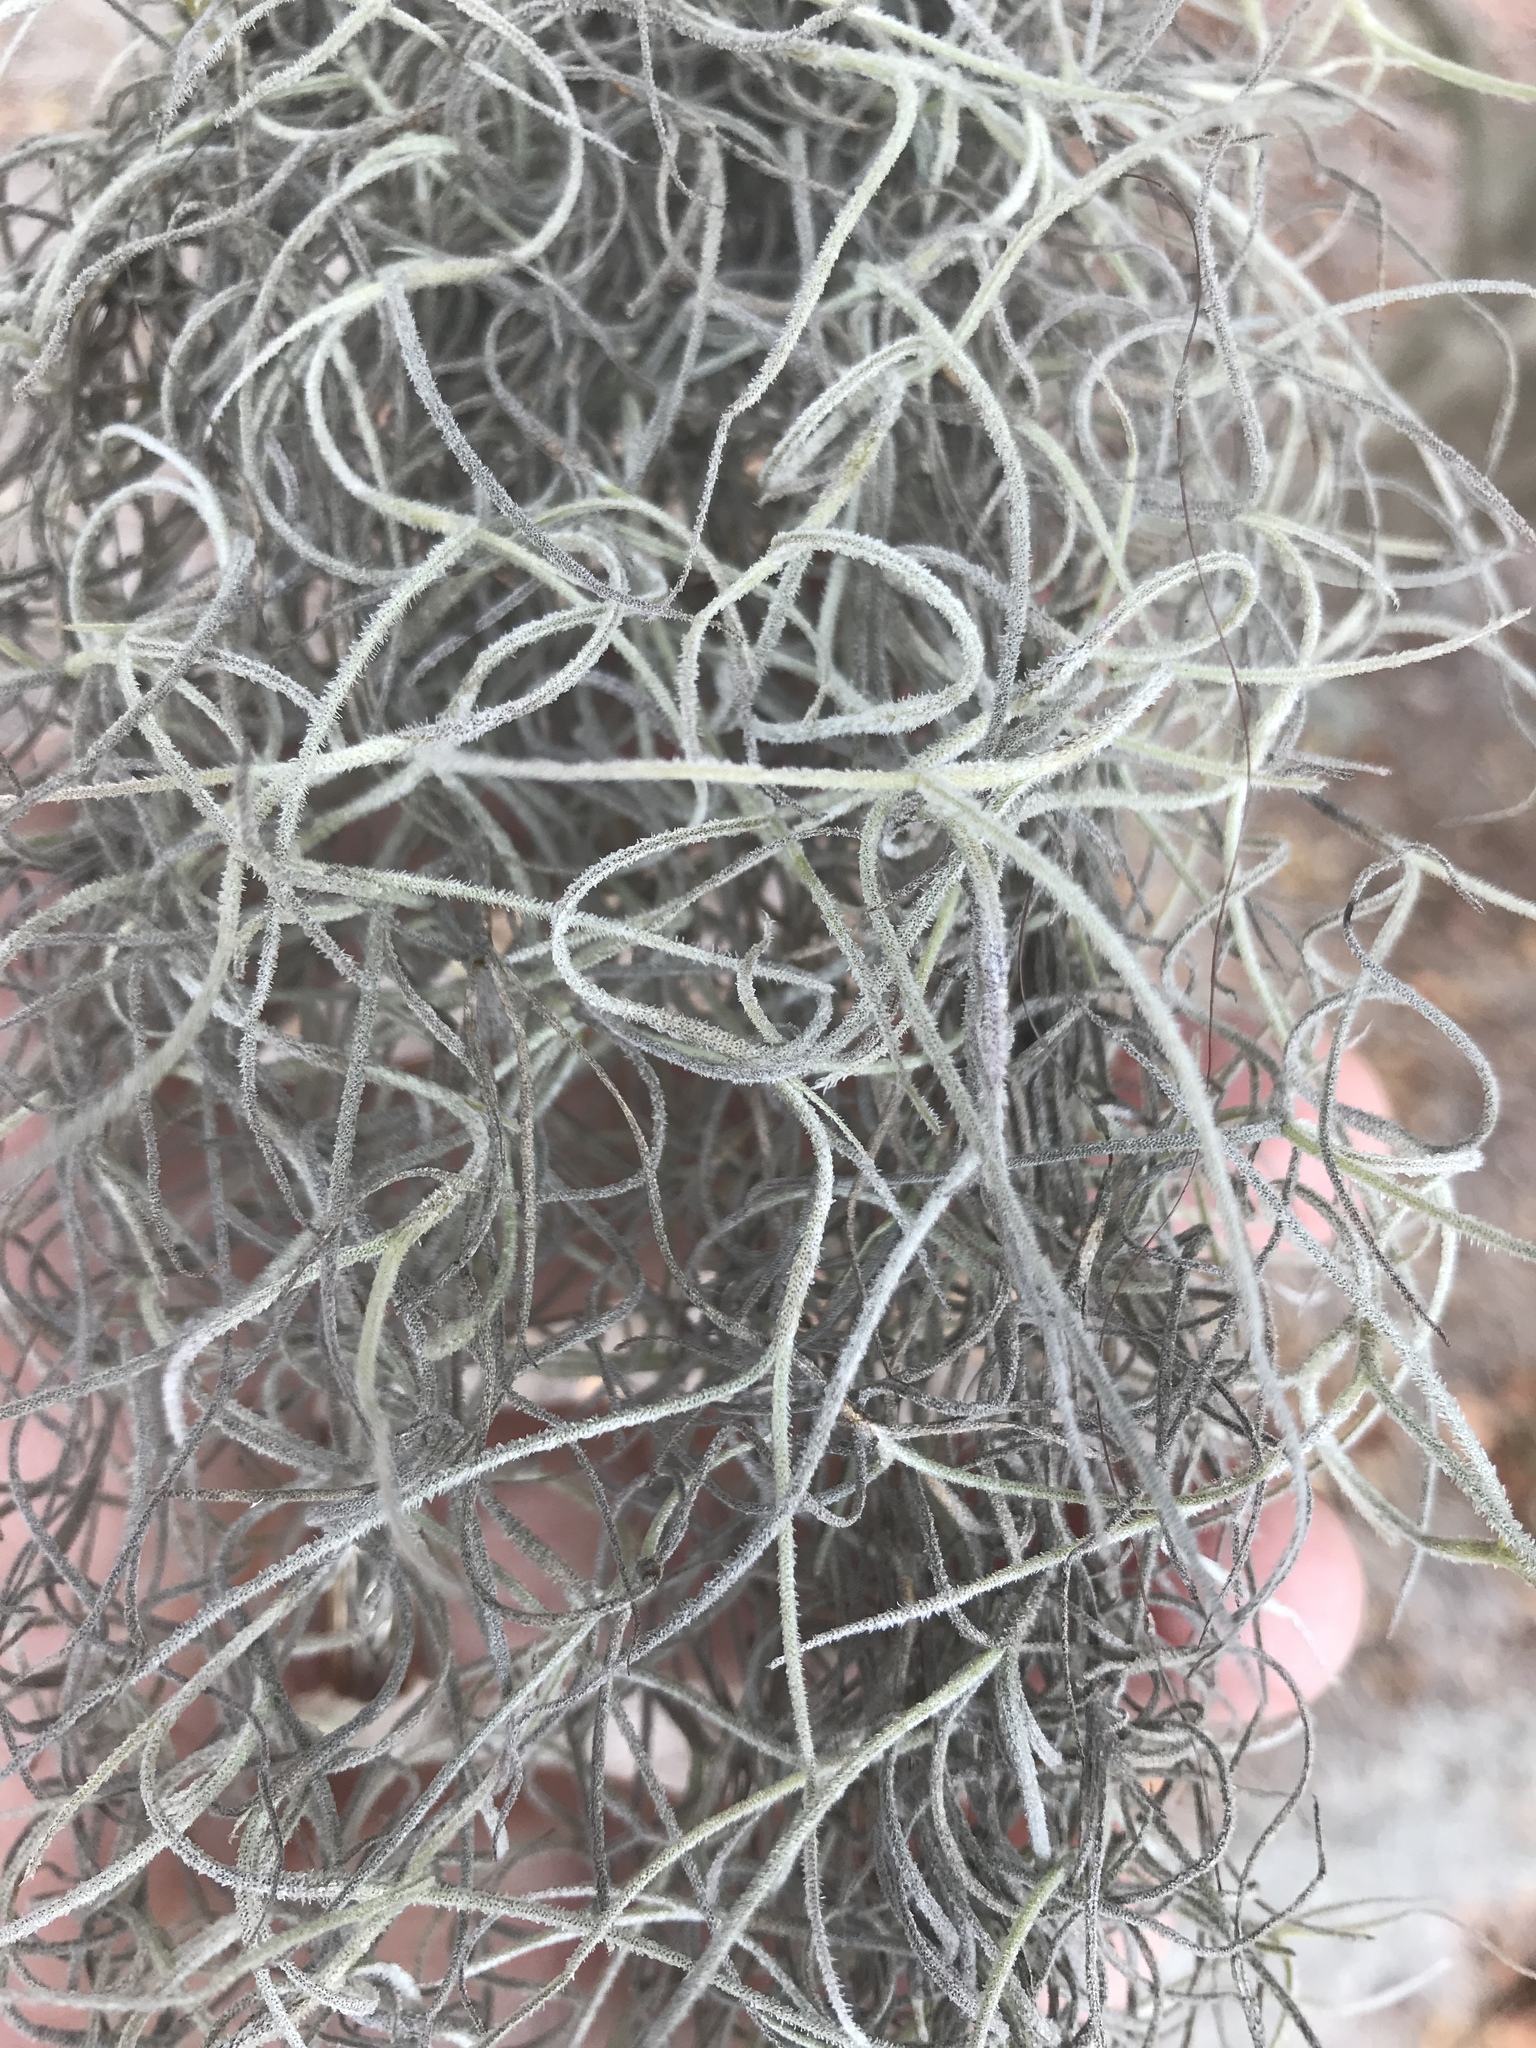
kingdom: Plantae
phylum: Tracheophyta
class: Liliopsida
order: Poales
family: Bromeliaceae
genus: Tillandsia
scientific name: Tillandsia usneoides
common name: Spanish moss
